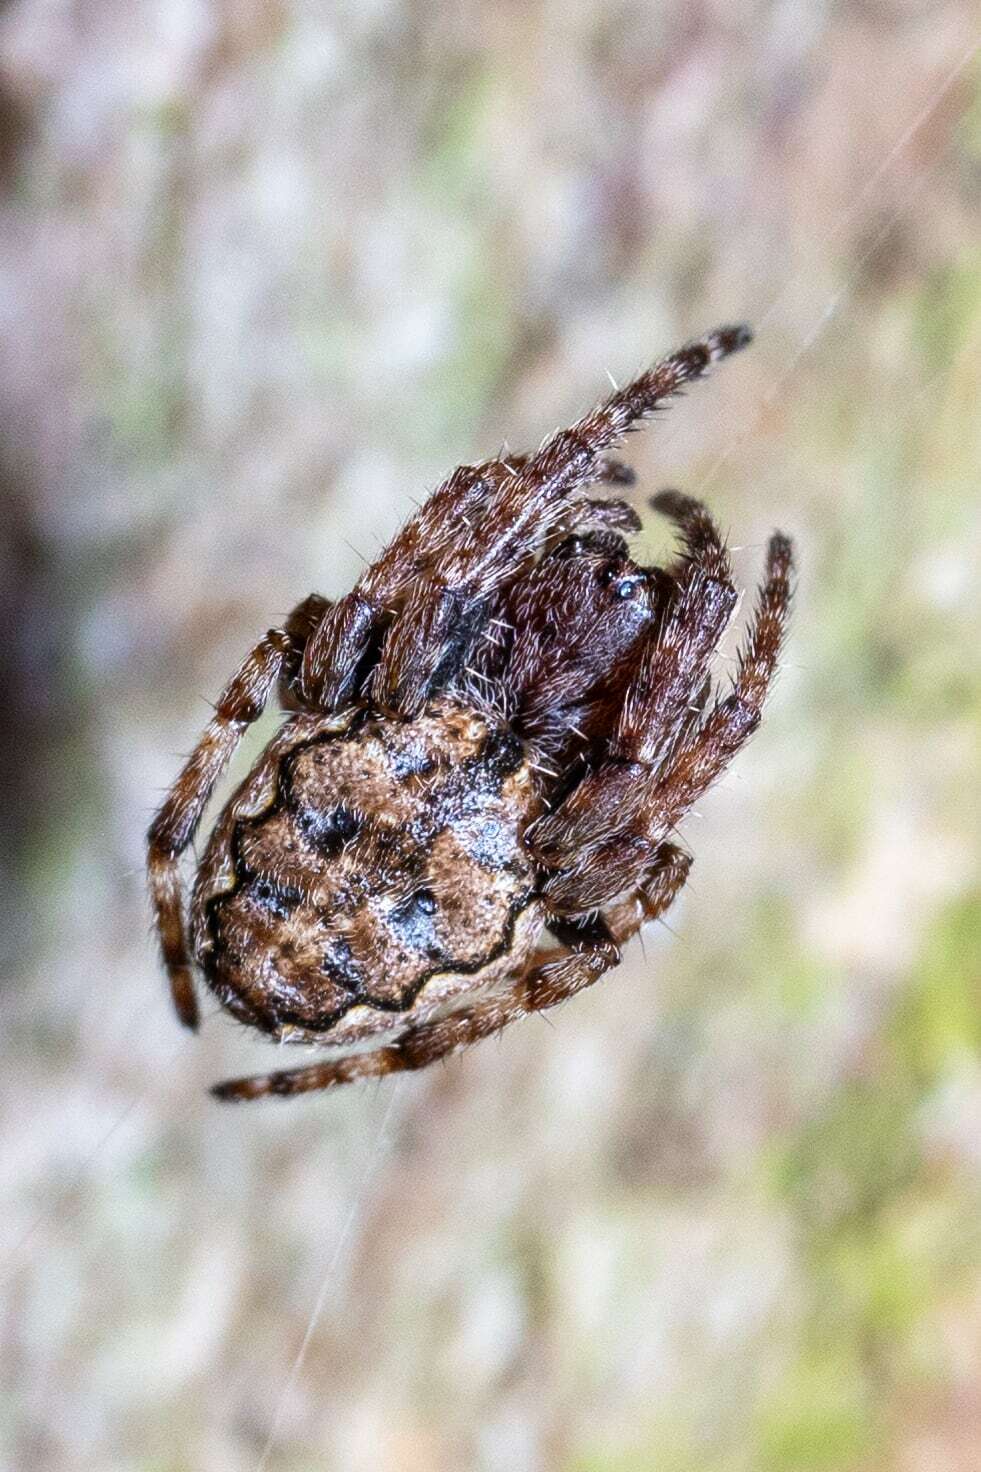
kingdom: Animalia
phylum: Arthropoda
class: Arachnida
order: Araneae
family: Araneidae
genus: Nuctenea
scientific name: Nuctenea umbratica
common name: Toad spider
